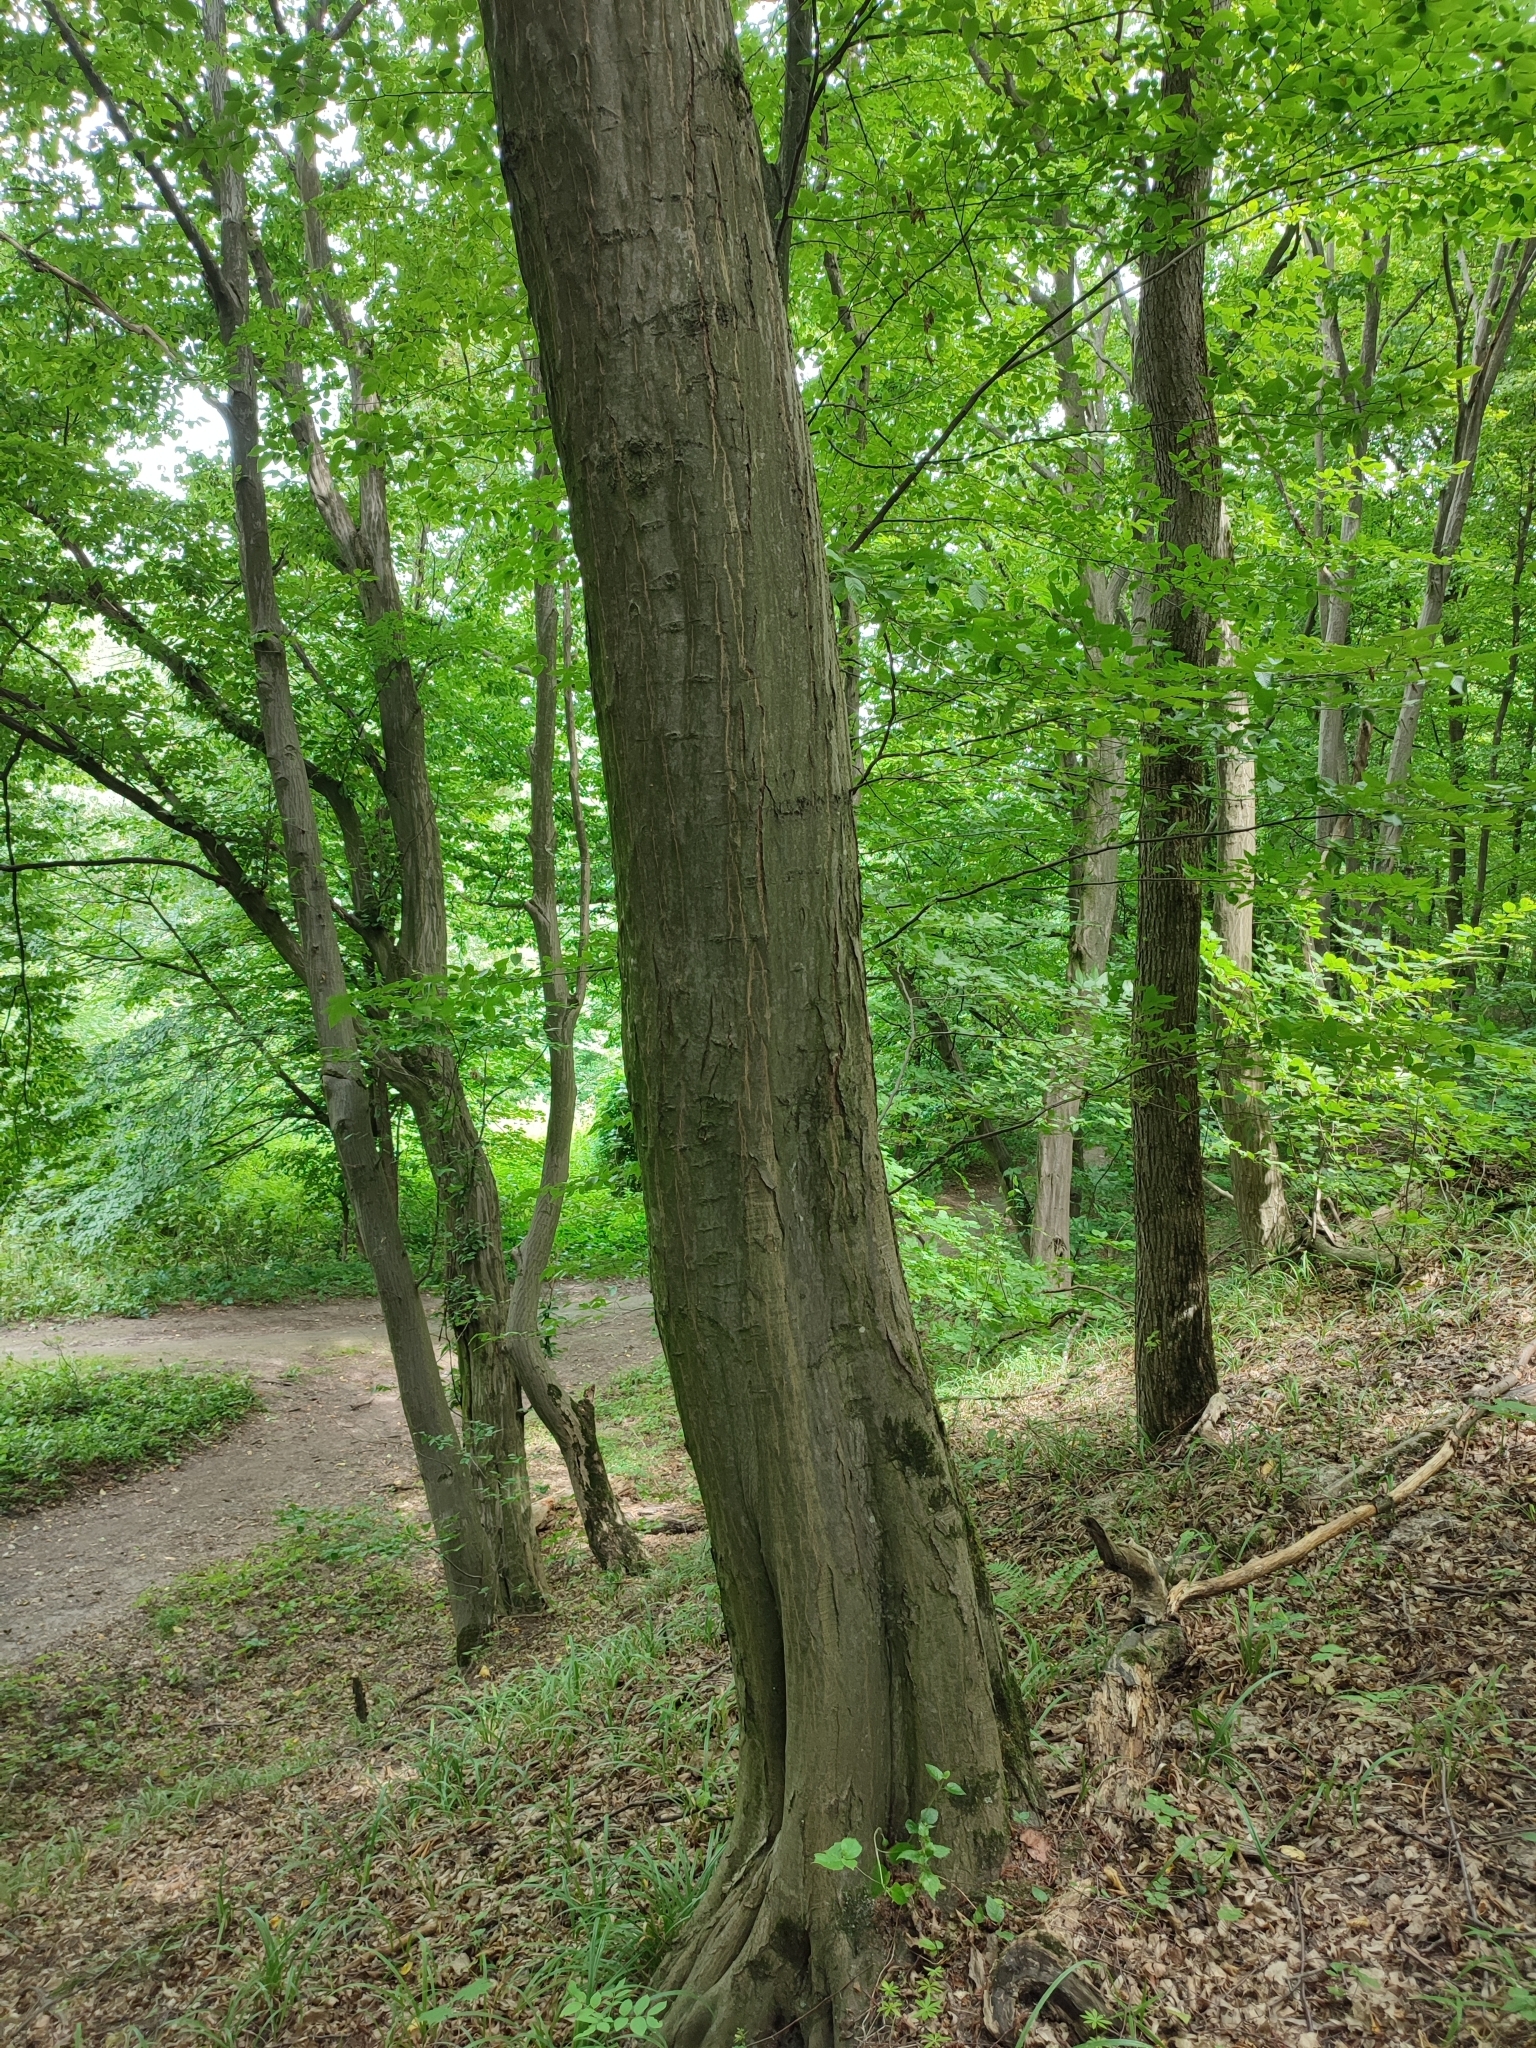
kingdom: Plantae
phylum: Tracheophyta
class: Magnoliopsida
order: Fagales
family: Betulaceae
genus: Carpinus
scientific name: Carpinus betulus
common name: Hornbeam
